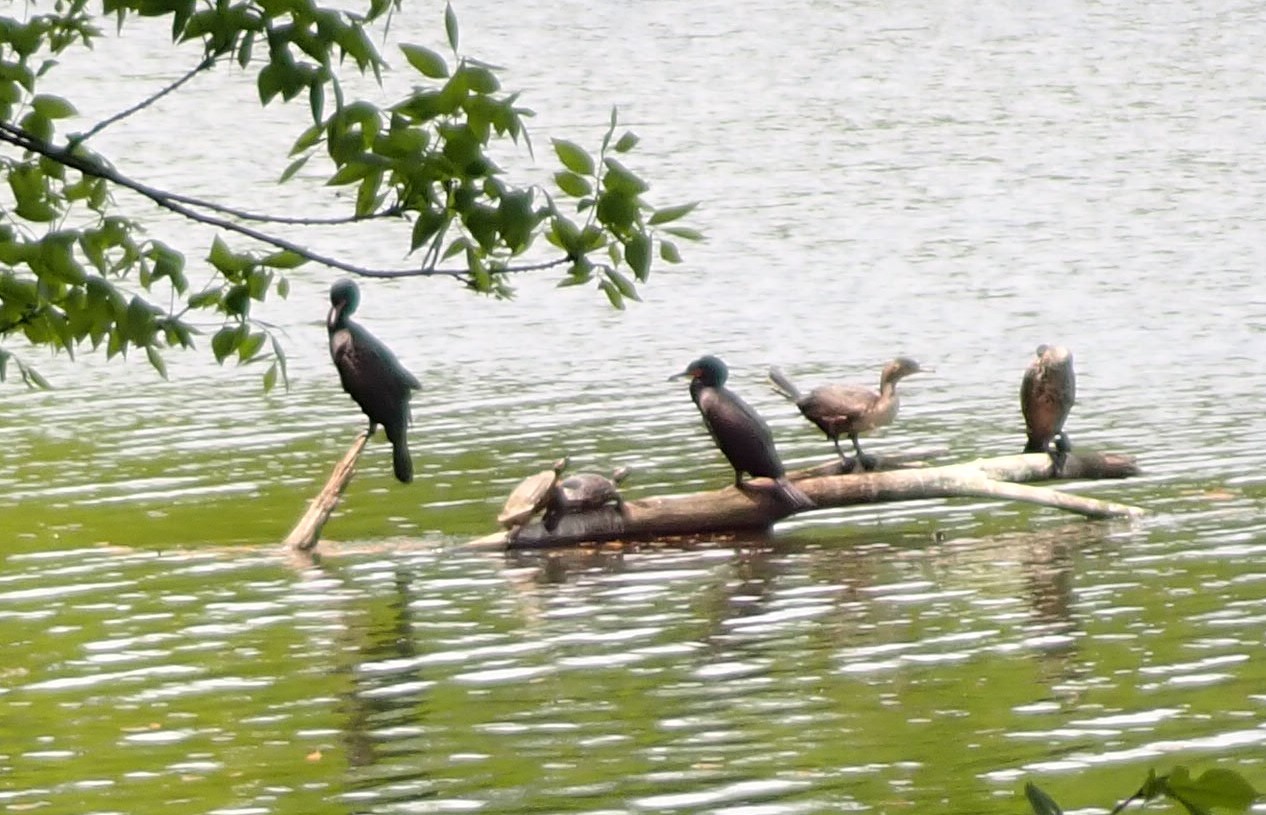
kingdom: Animalia
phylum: Chordata
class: Aves
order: Suliformes
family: Phalacrocoracidae
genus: Phalacrocorax
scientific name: Phalacrocorax auritus
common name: Double-crested cormorant
